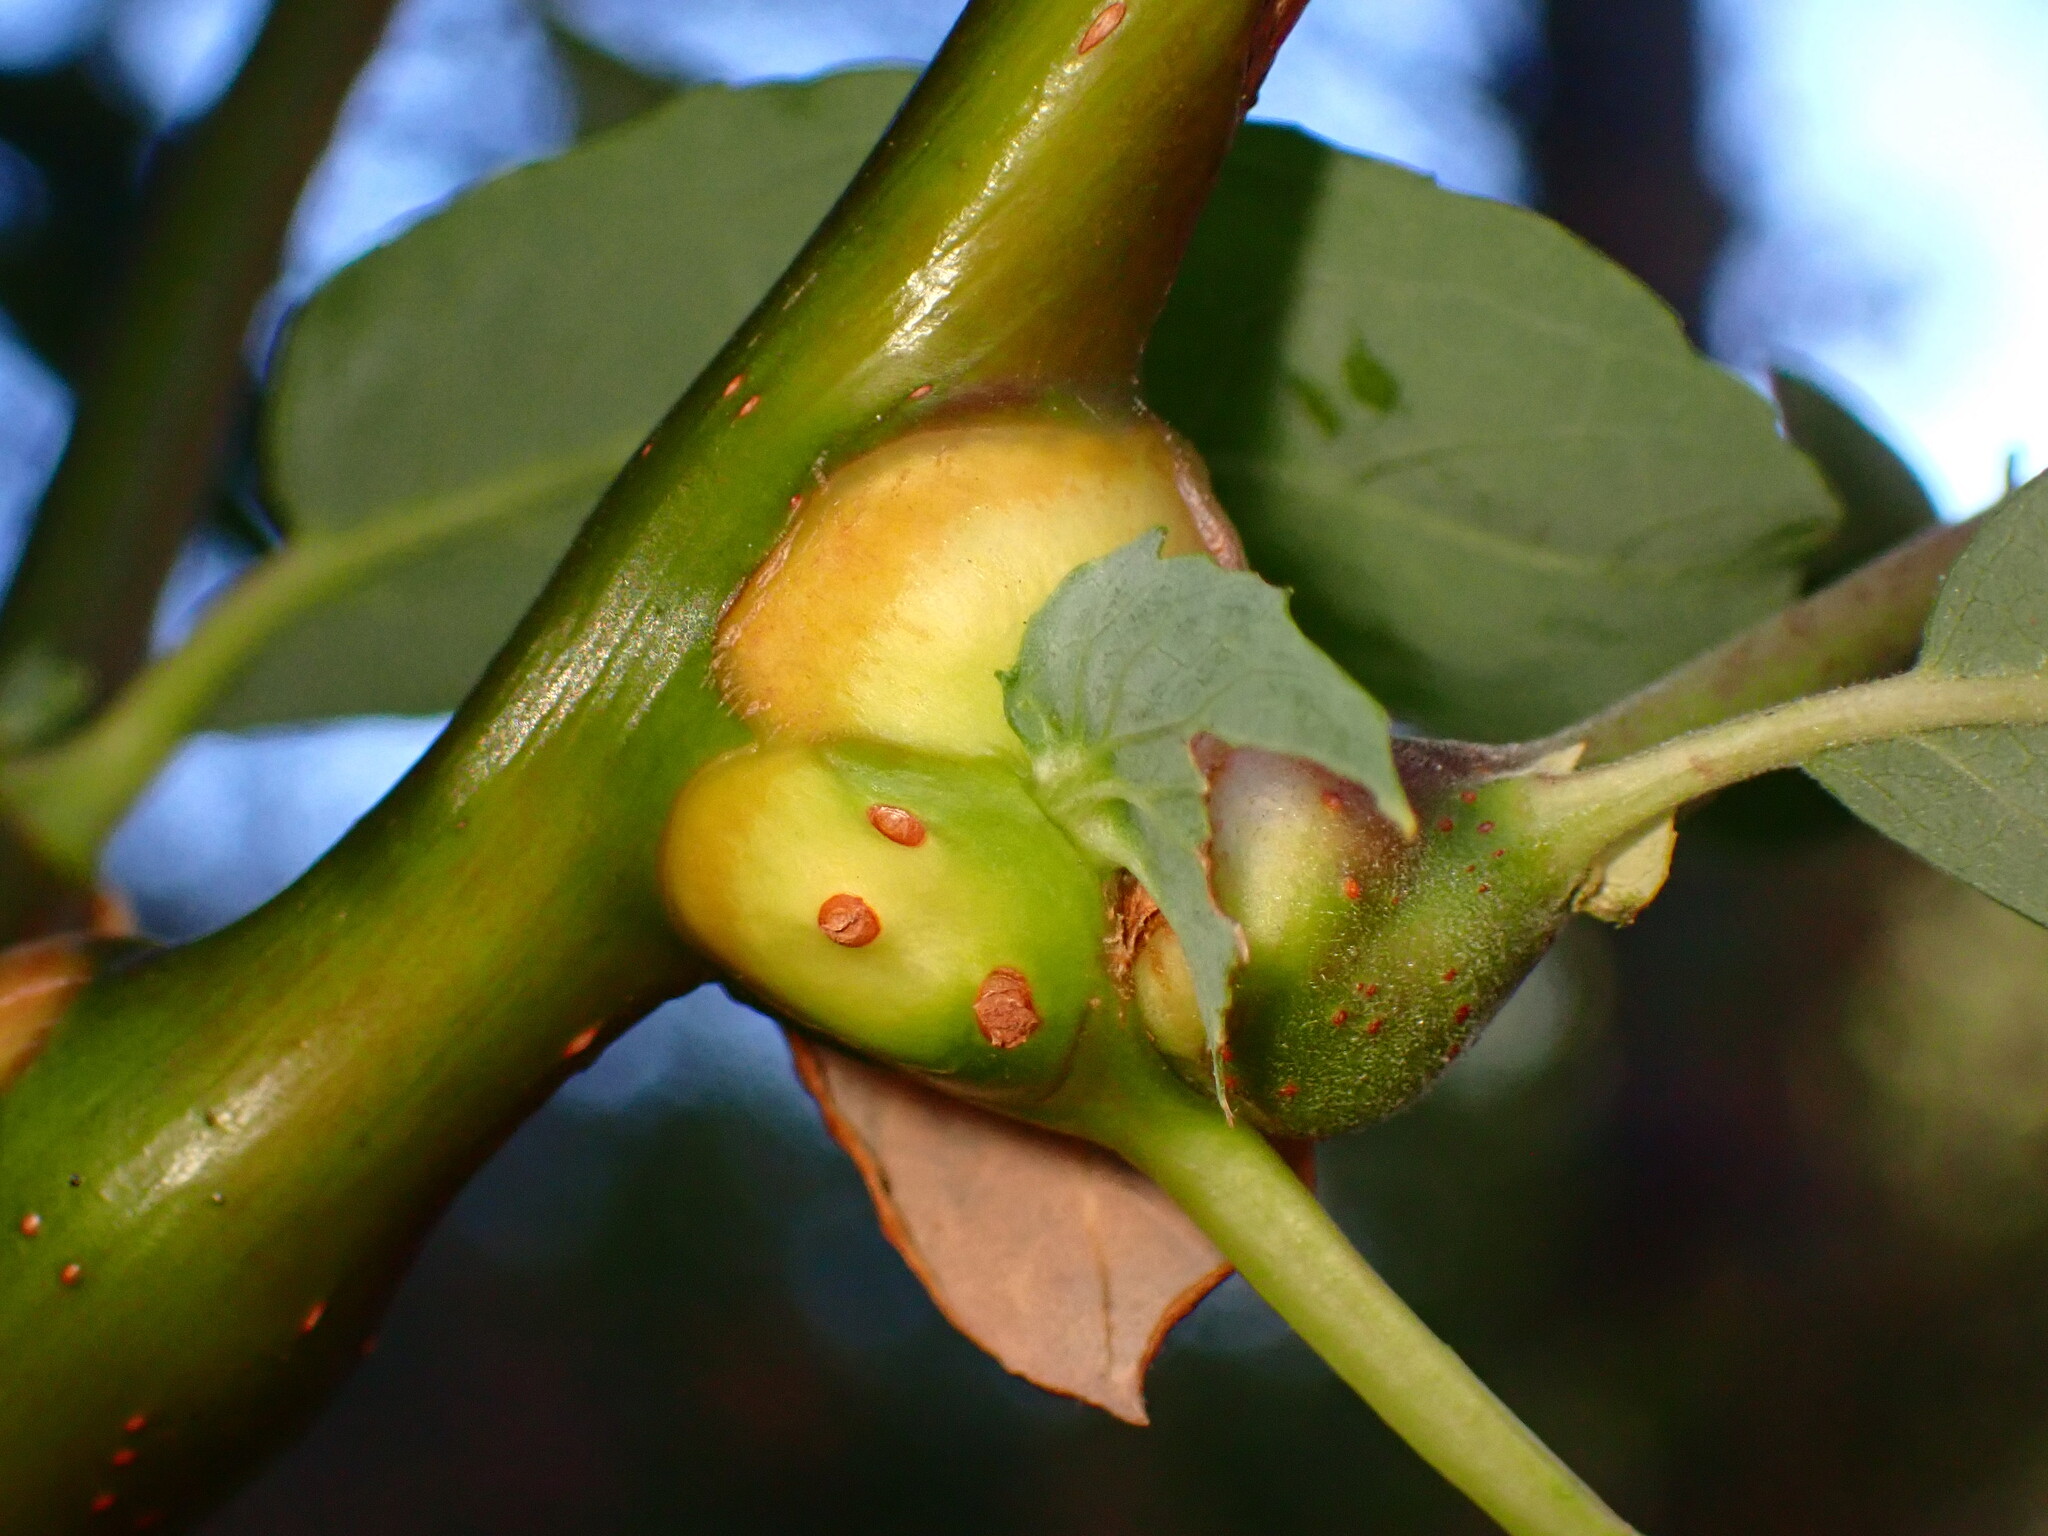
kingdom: Animalia
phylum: Arthropoda
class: Insecta
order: Diptera
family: Cecidomyiidae
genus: Rabdophaga
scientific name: Rabdophaga salicisbatatas
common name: Potato gall midge
